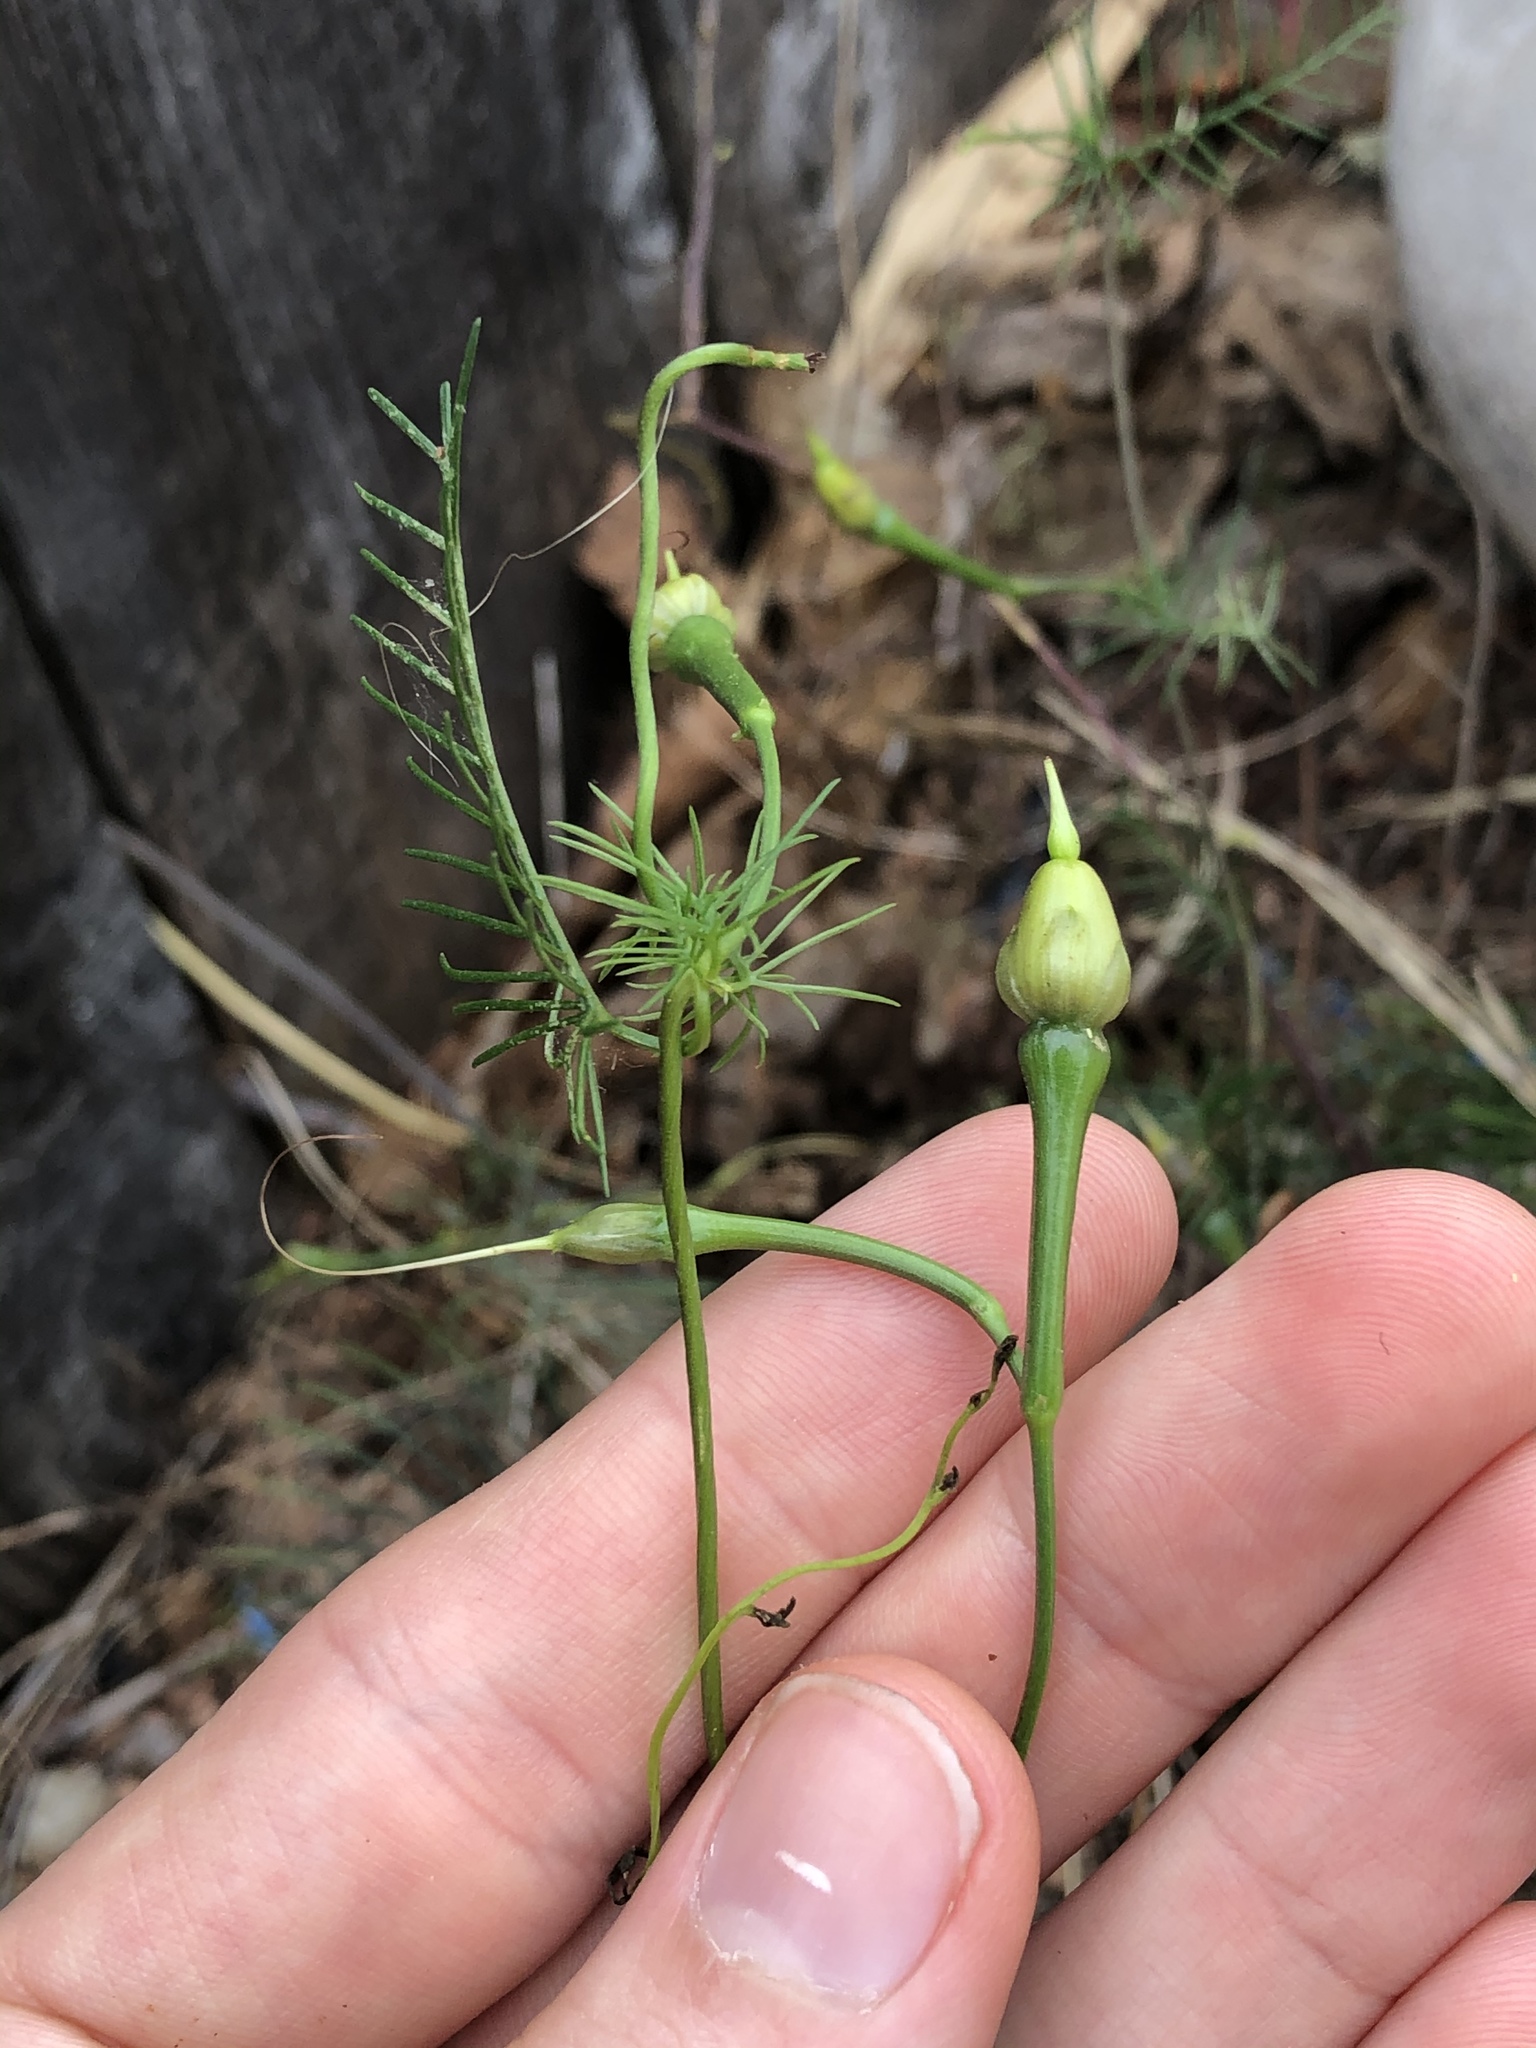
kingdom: Plantae
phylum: Tracheophyta
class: Magnoliopsida
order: Solanales
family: Convolvulaceae
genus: Ipomoea
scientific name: Ipomoea quamoclit
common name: Cypress vine
